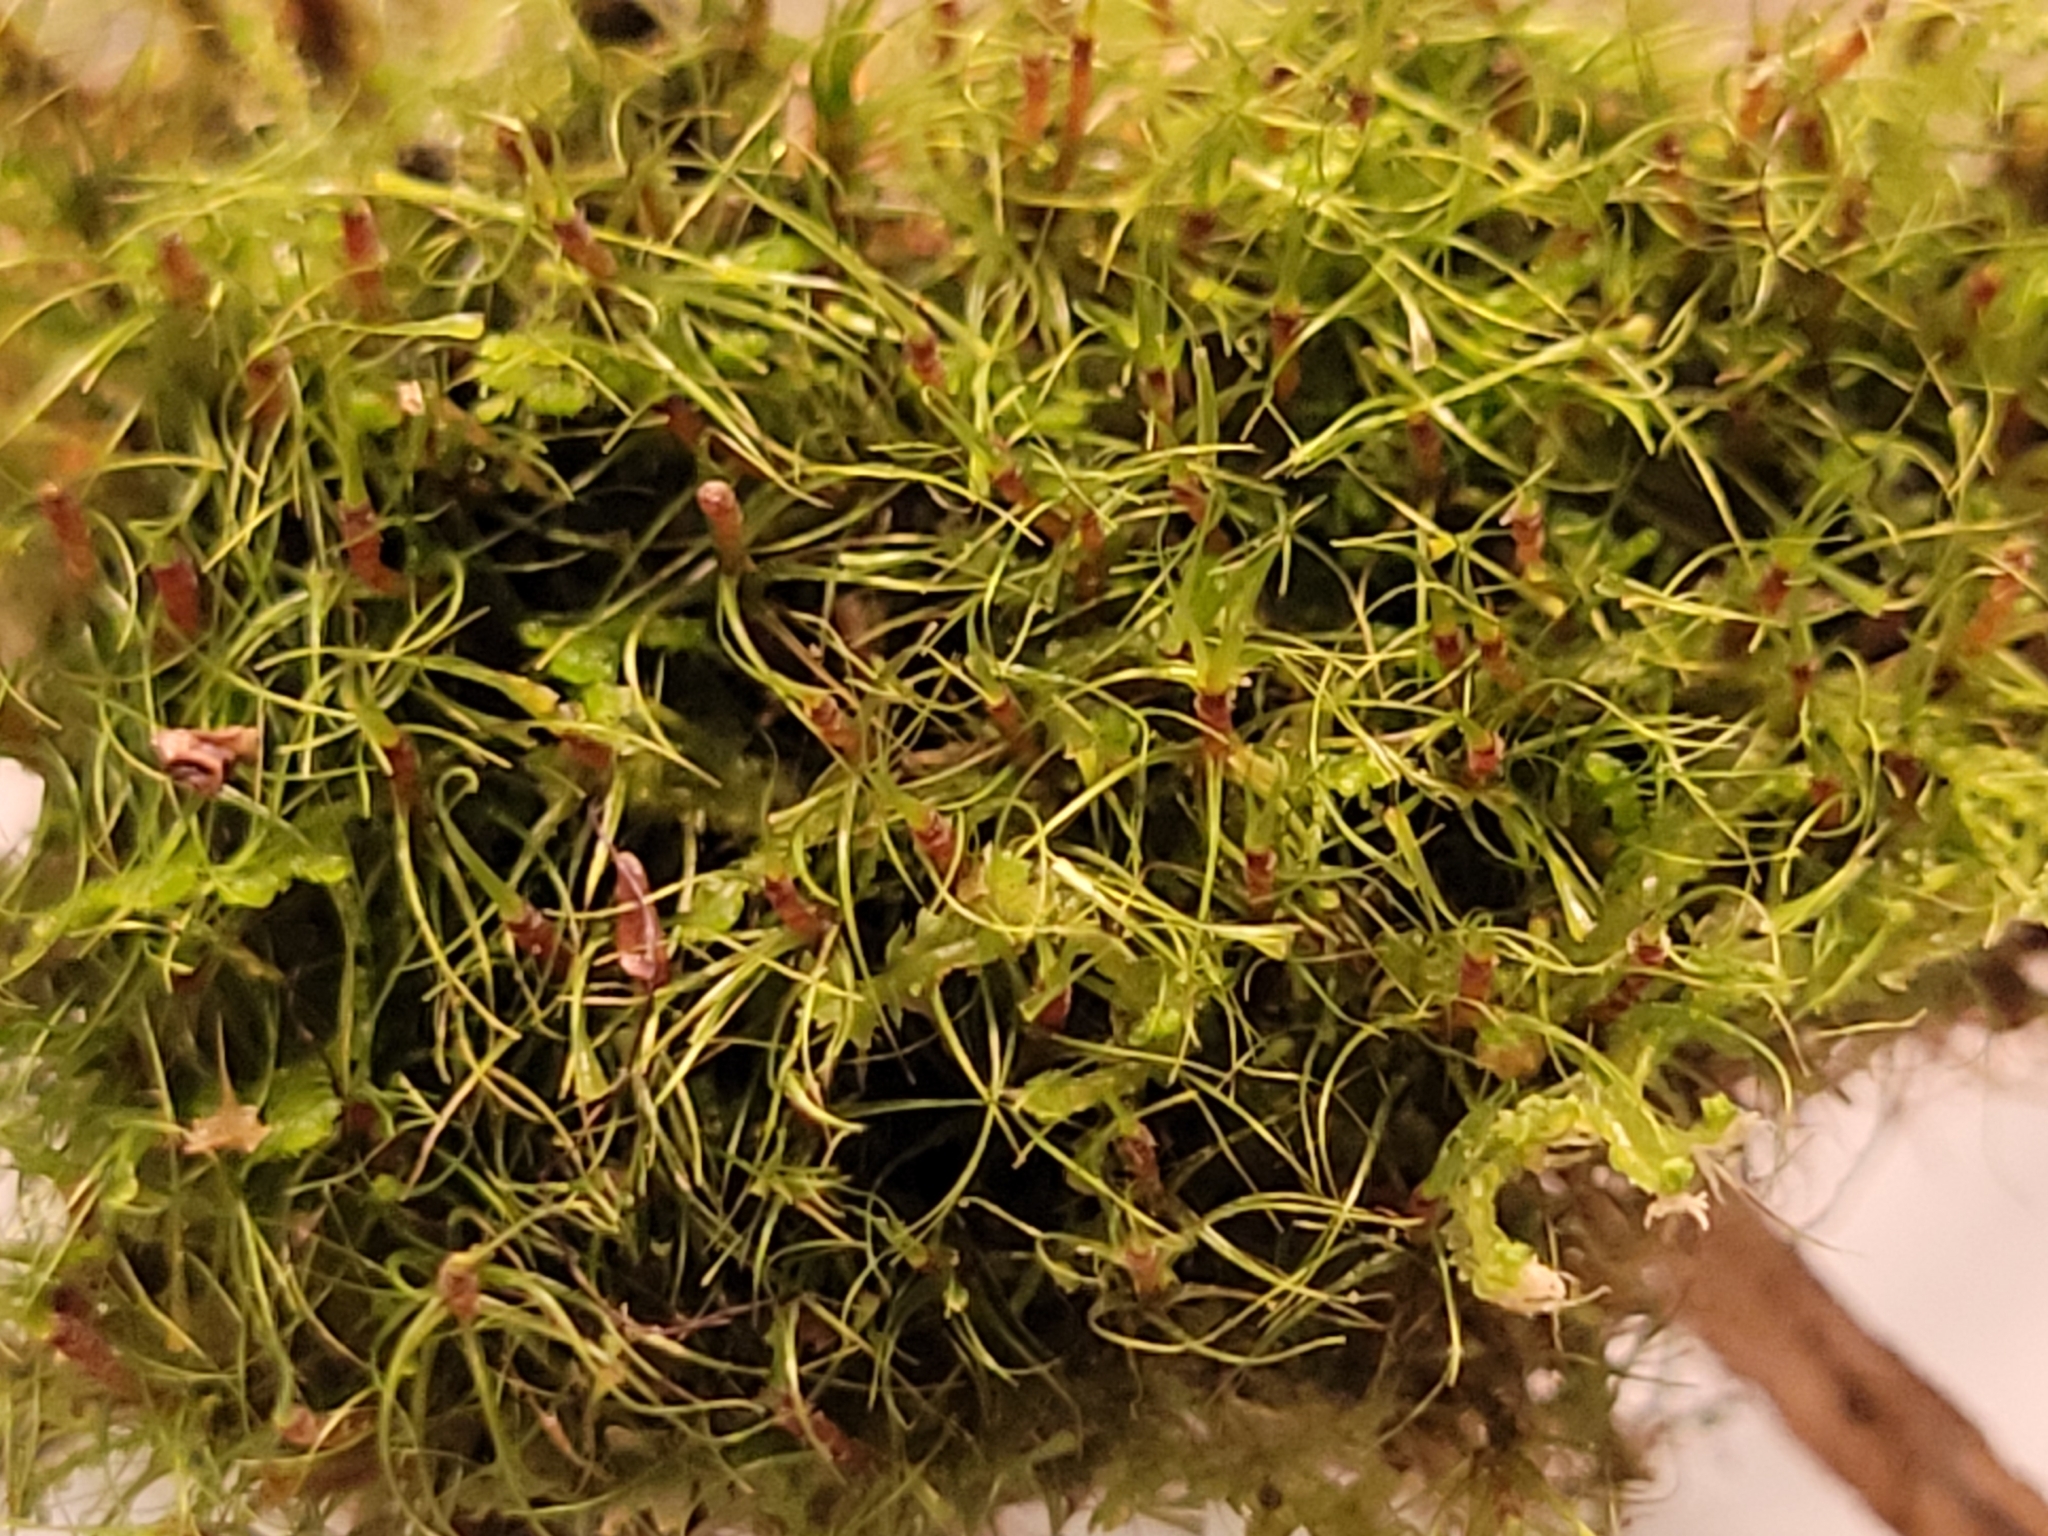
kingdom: Plantae
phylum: Bryophyta
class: Bryopsida
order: Dicranales
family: Leucobryaceae
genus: Dicranodontium
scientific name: Dicranodontium denudatum
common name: Beaked bow moss
